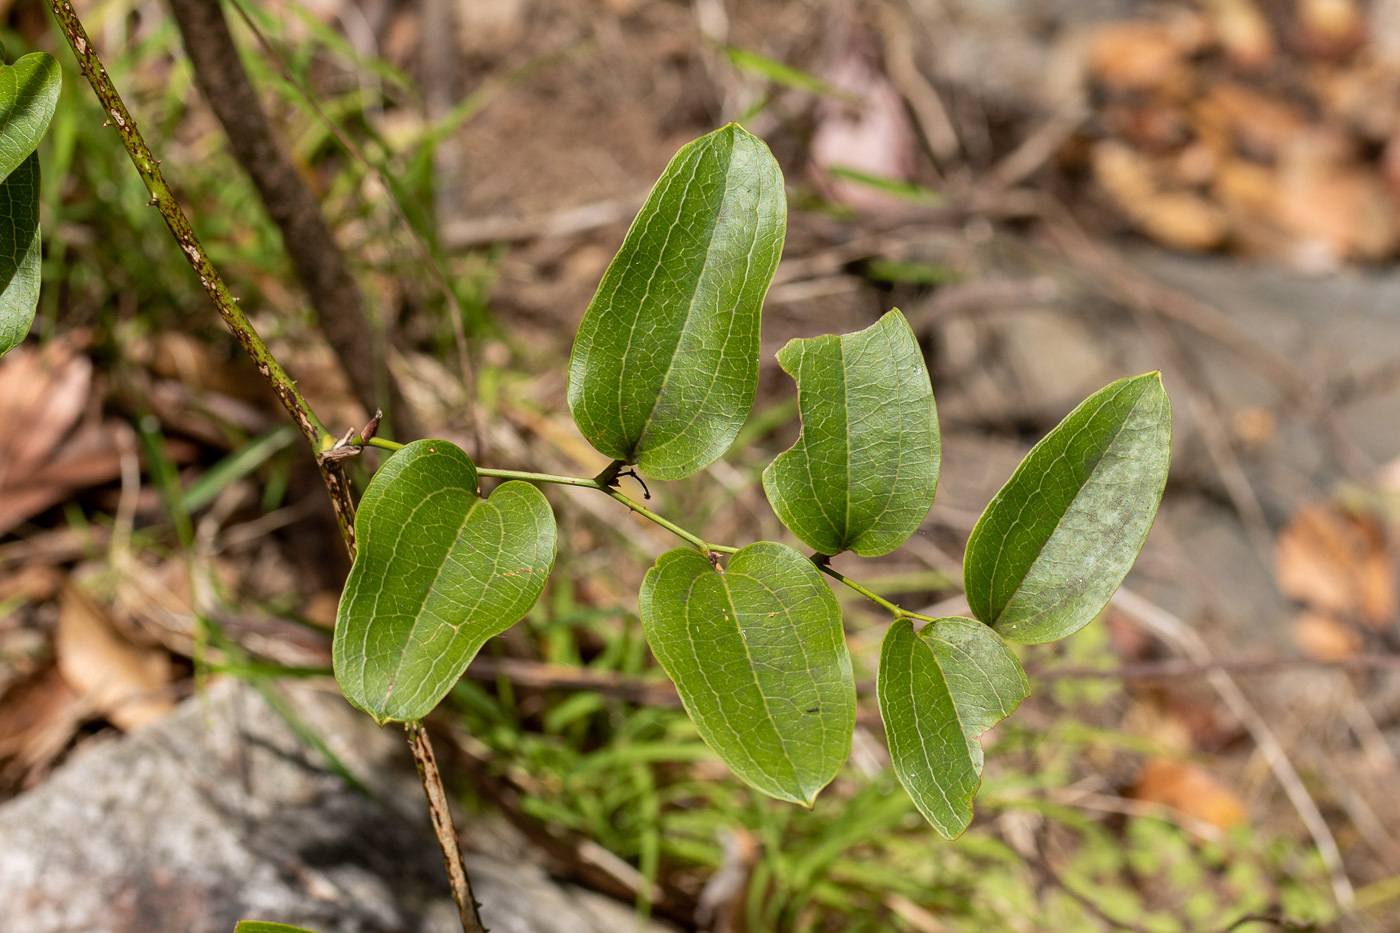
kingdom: Plantae
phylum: Tracheophyta
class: Liliopsida
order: Liliales
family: Smilacaceae
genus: Smilax
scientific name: Smilax australis
